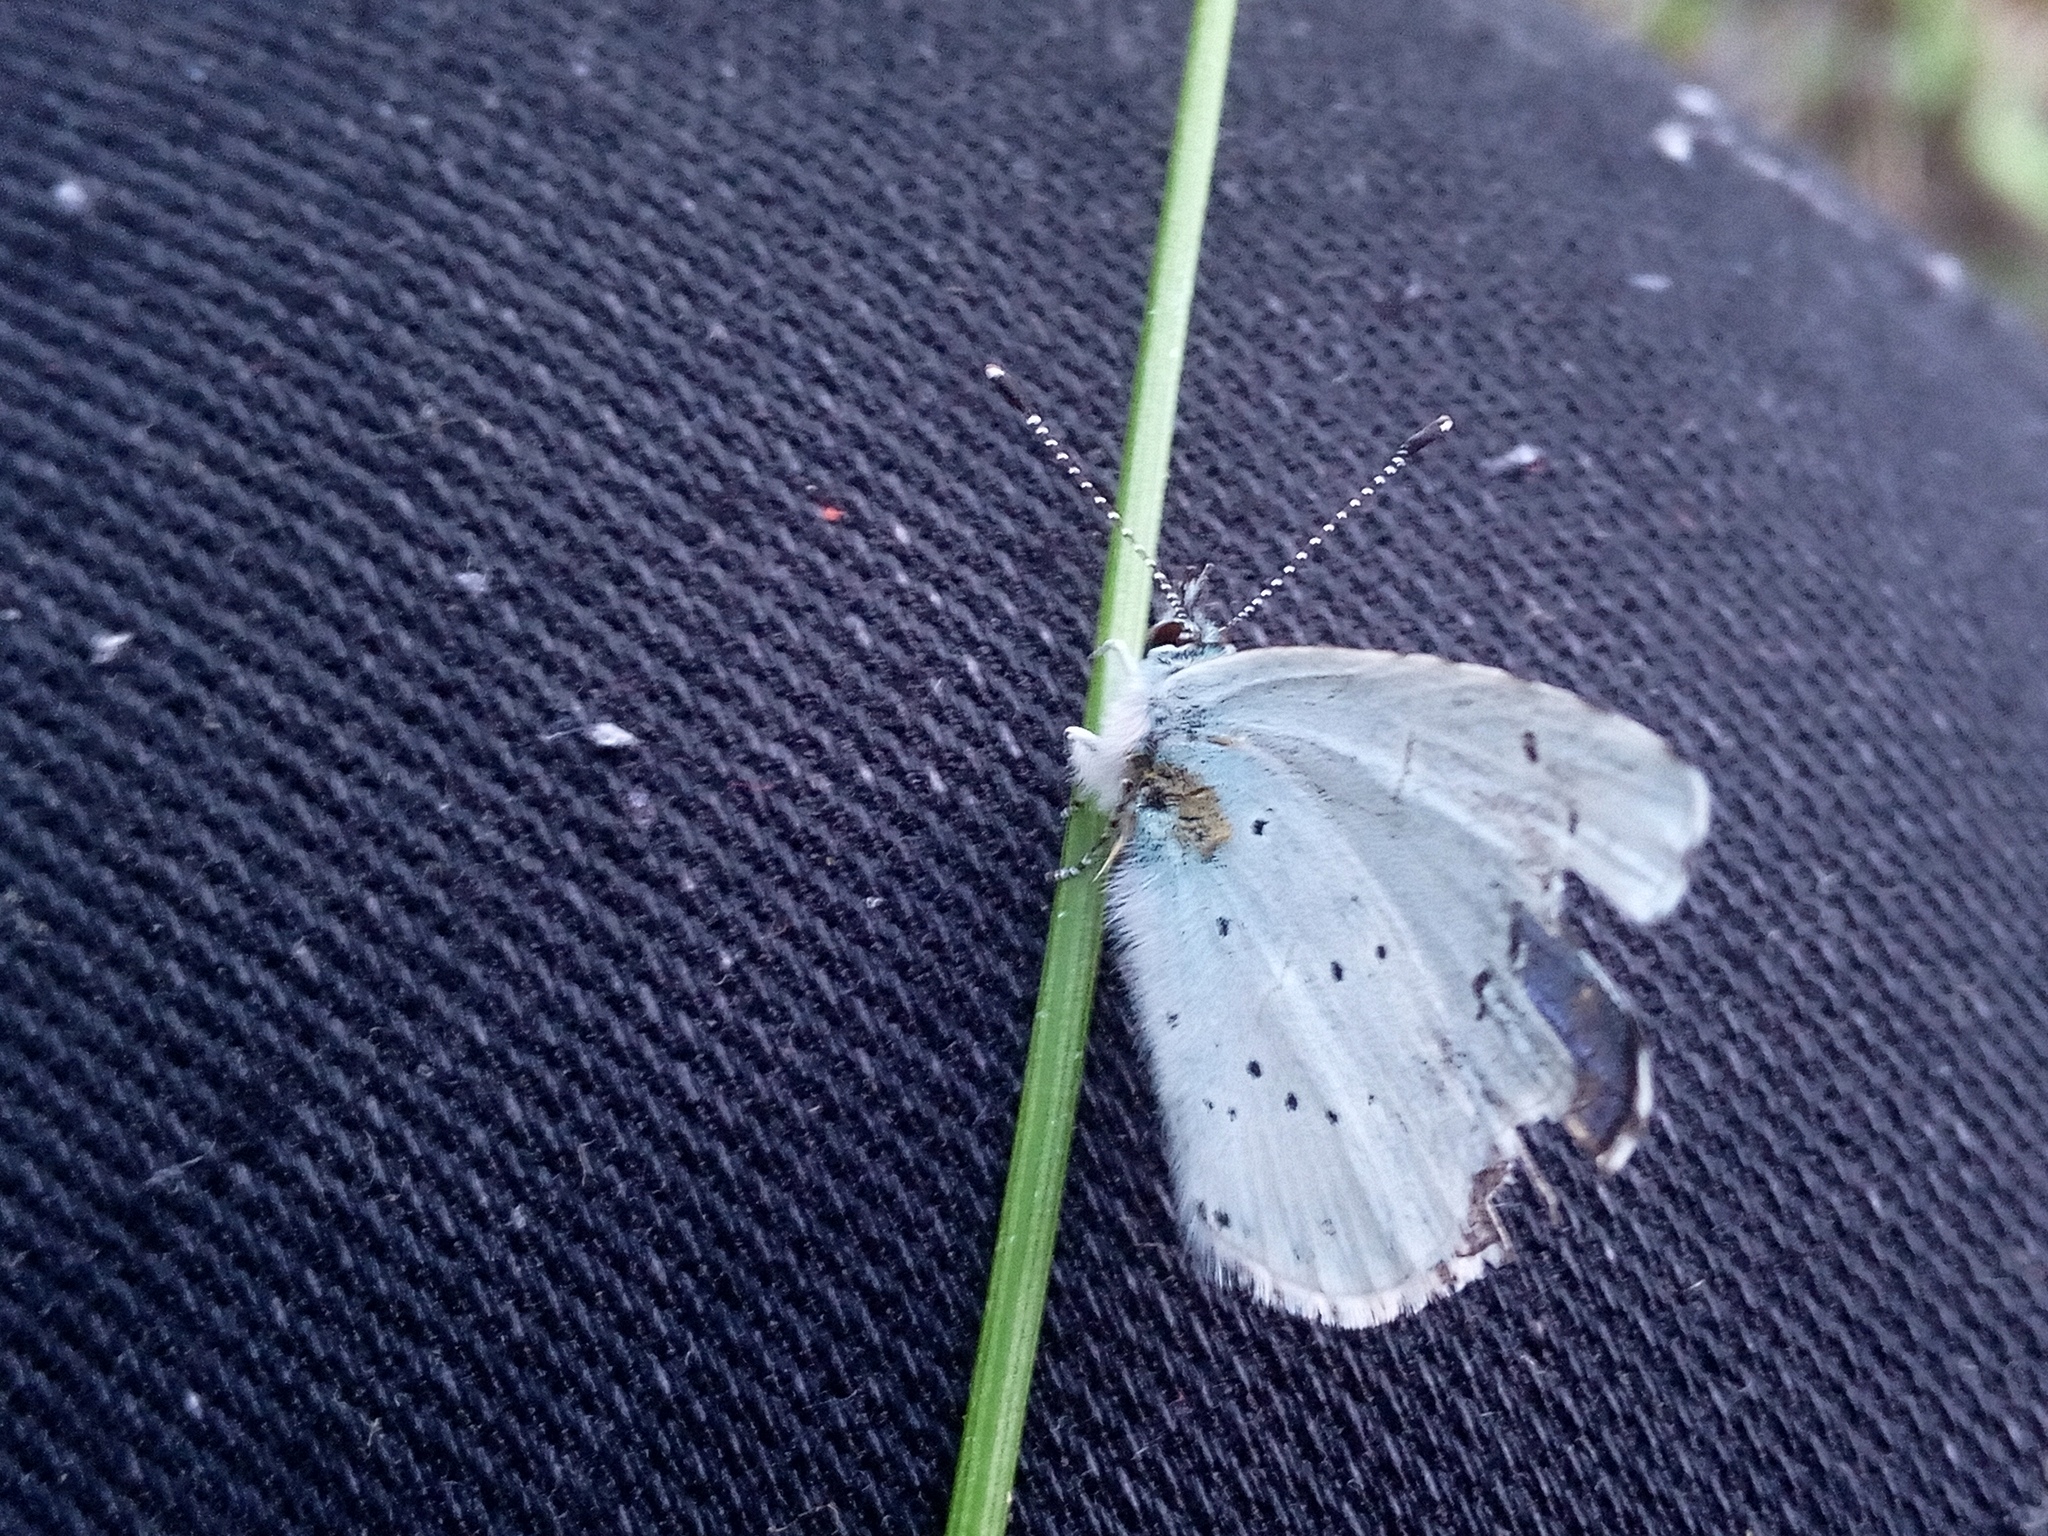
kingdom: Animalia
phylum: Arthropoda
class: Insecta
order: Lepidoptera
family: Lycaenidae
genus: Celastrina
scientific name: Celastrina argiolus
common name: Holly blue
